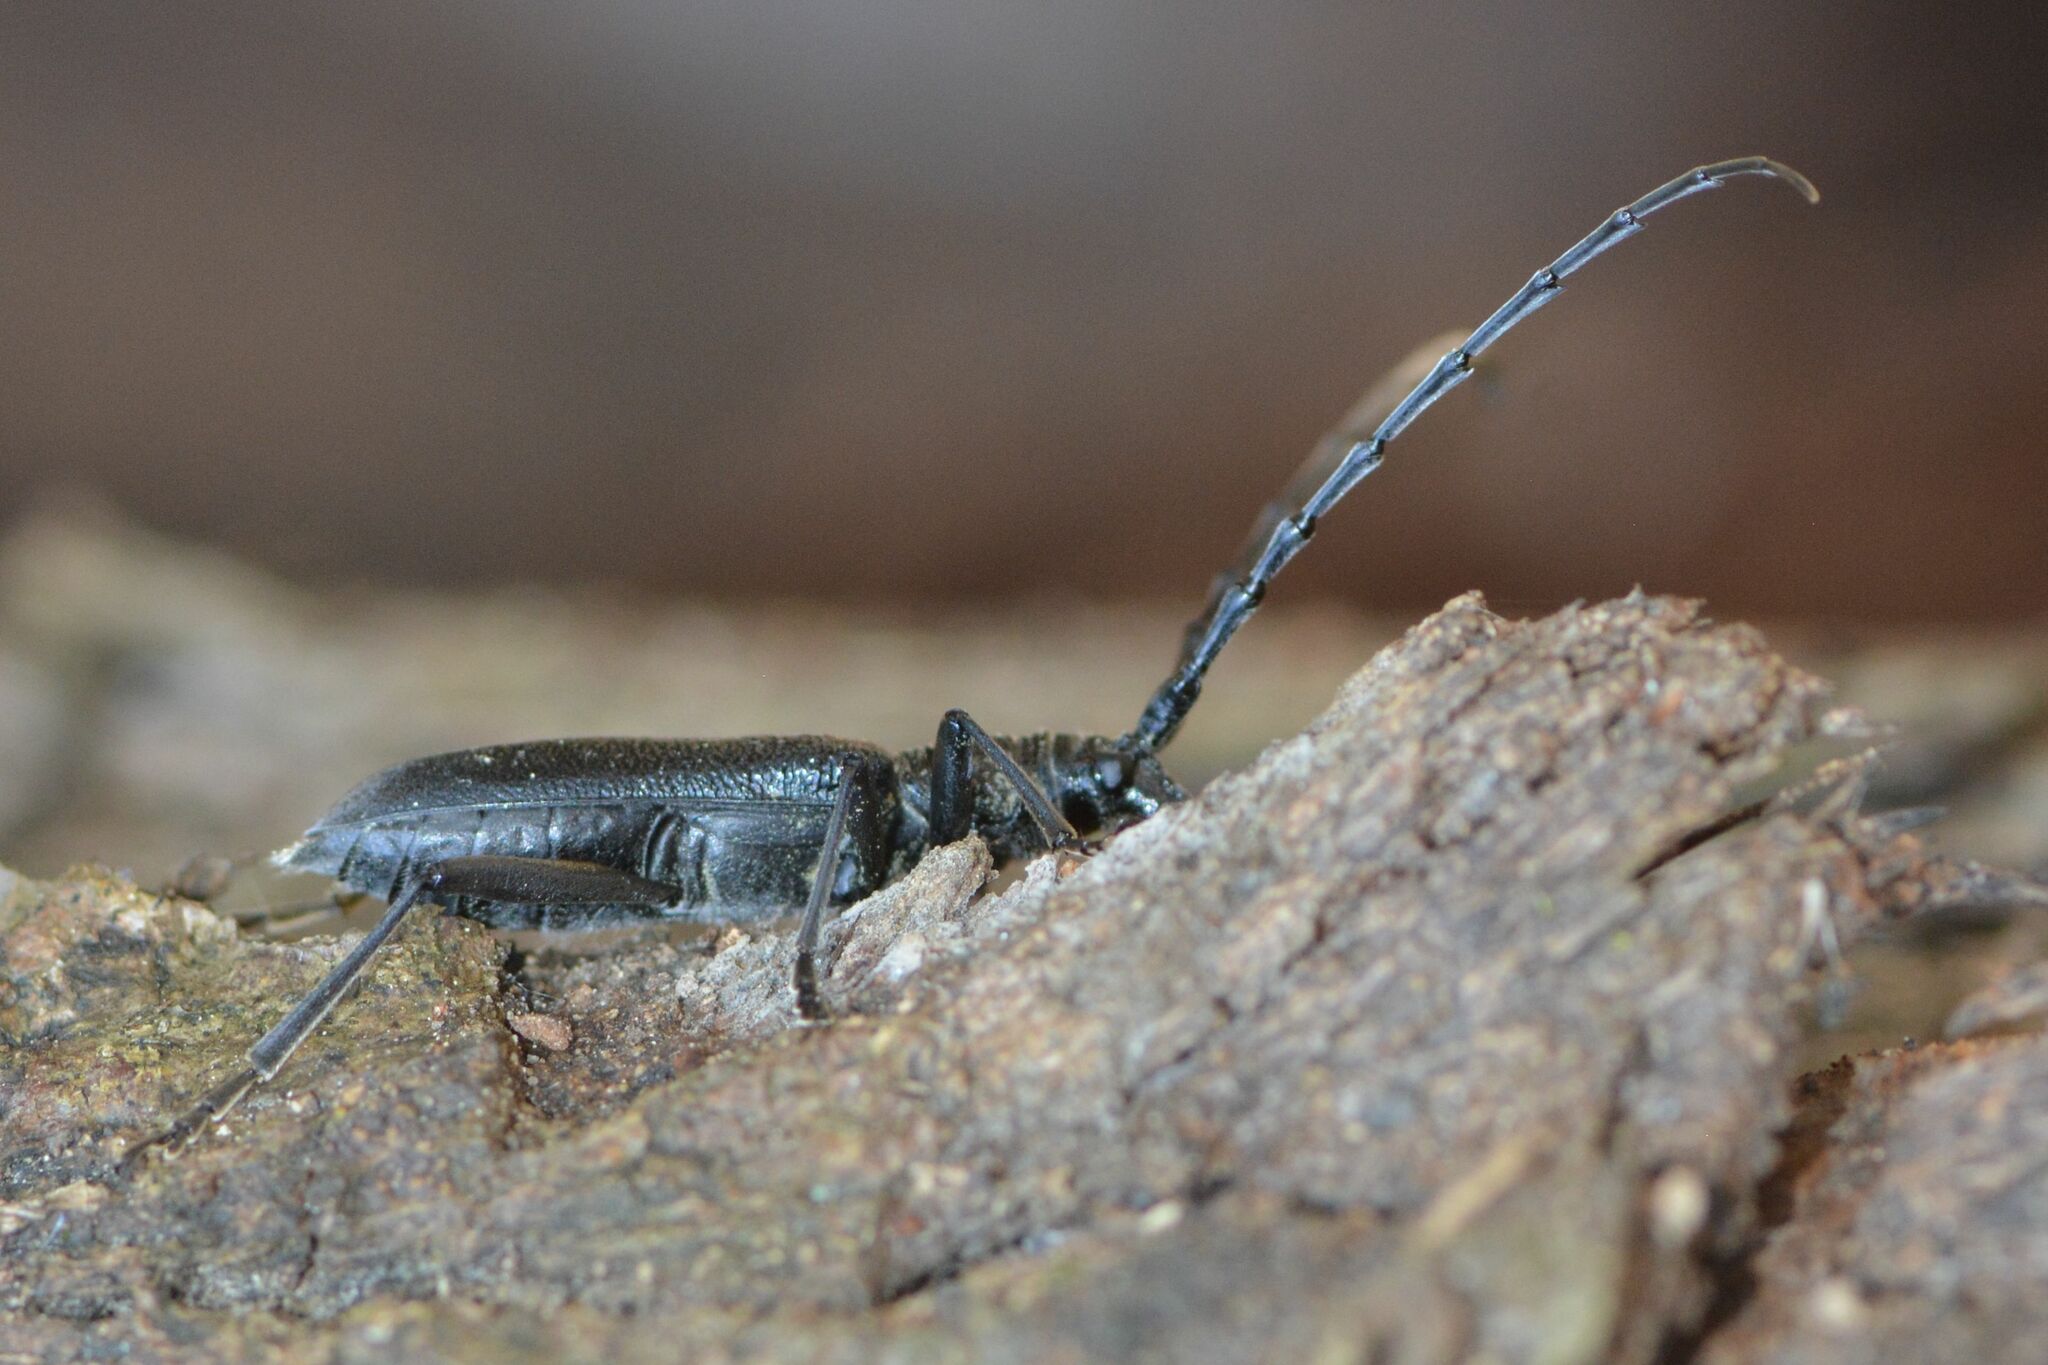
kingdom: Animalia
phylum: Arthropoda
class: Insecta
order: Coleoptera
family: Cerambycidae
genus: Cerambyx
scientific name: Cerambyx scopolii
